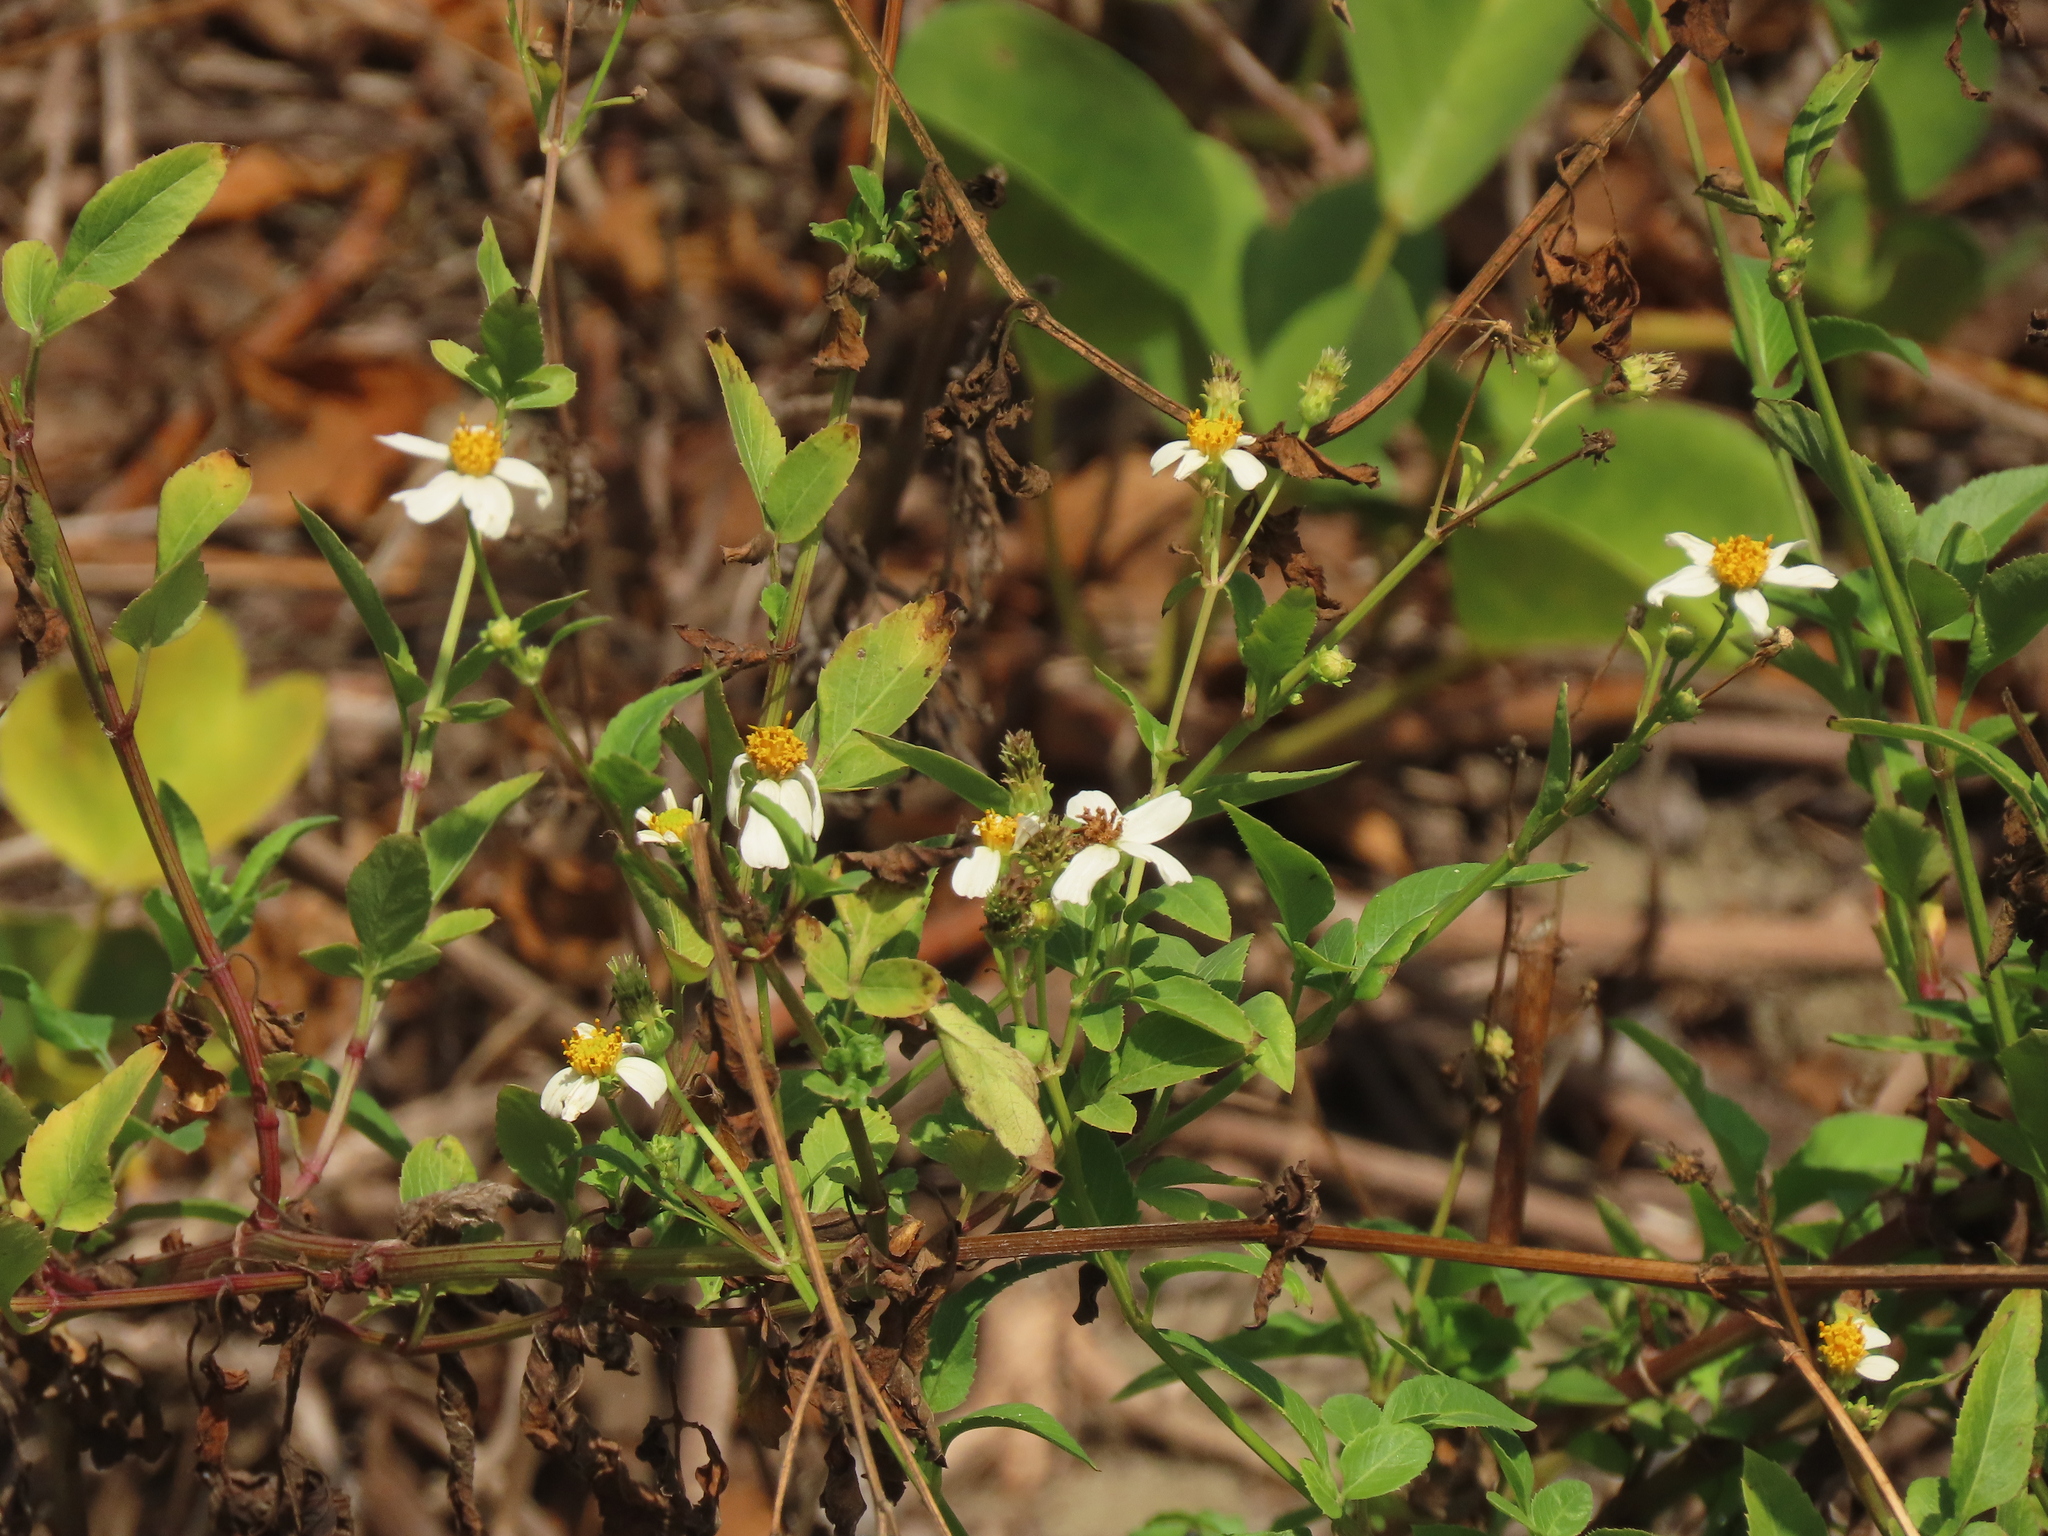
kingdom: Plantae
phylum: Tracheophyta
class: Magnoliopsida
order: Asterales
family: Asteraceae
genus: Bidens
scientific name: Bidens alba
